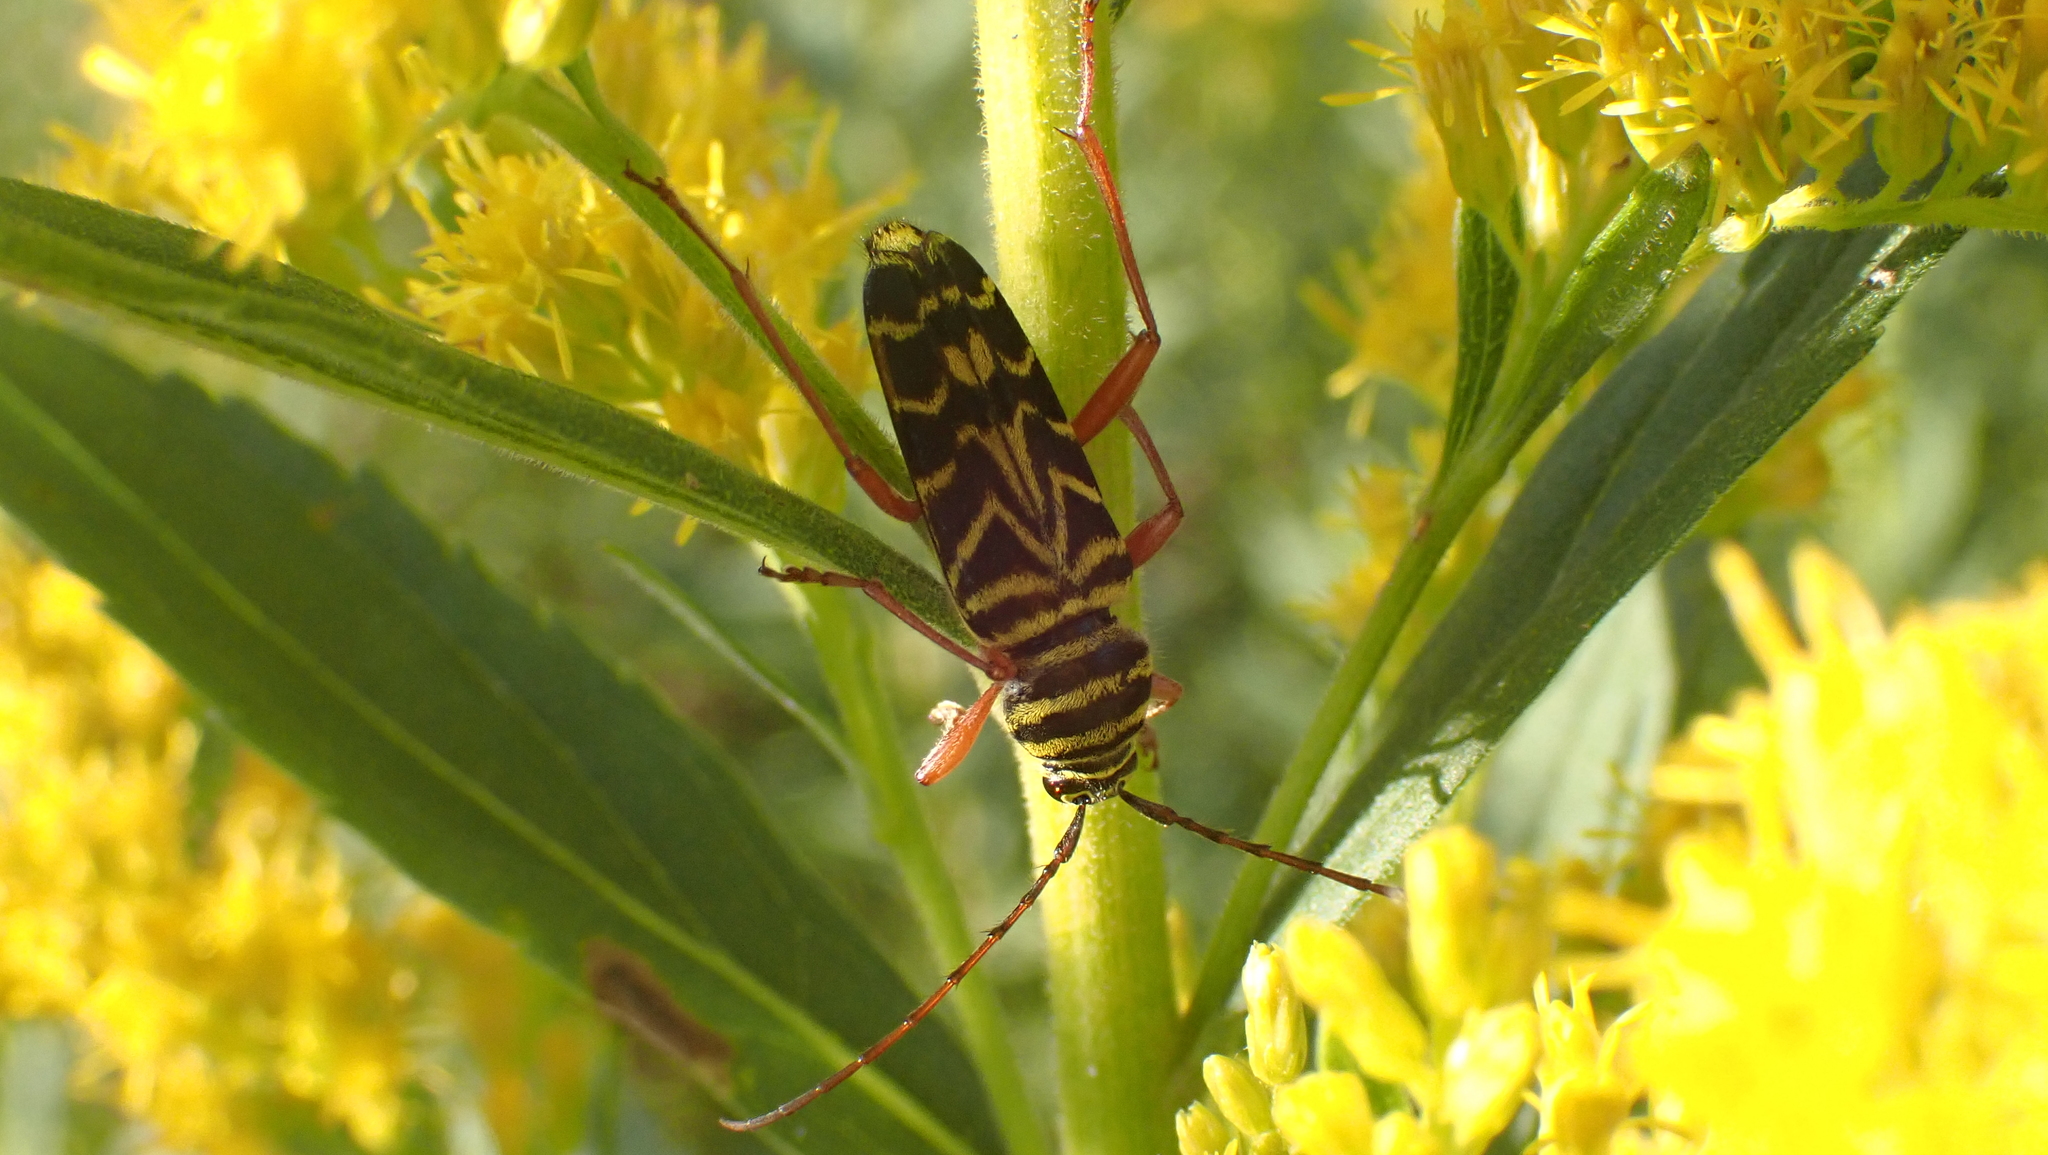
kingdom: Animalia
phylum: Arthropoda
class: Insecta
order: Coleoptera
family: Cerambycidae
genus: Megacyllene
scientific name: Megacyllene robiniae
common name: Locust borer
